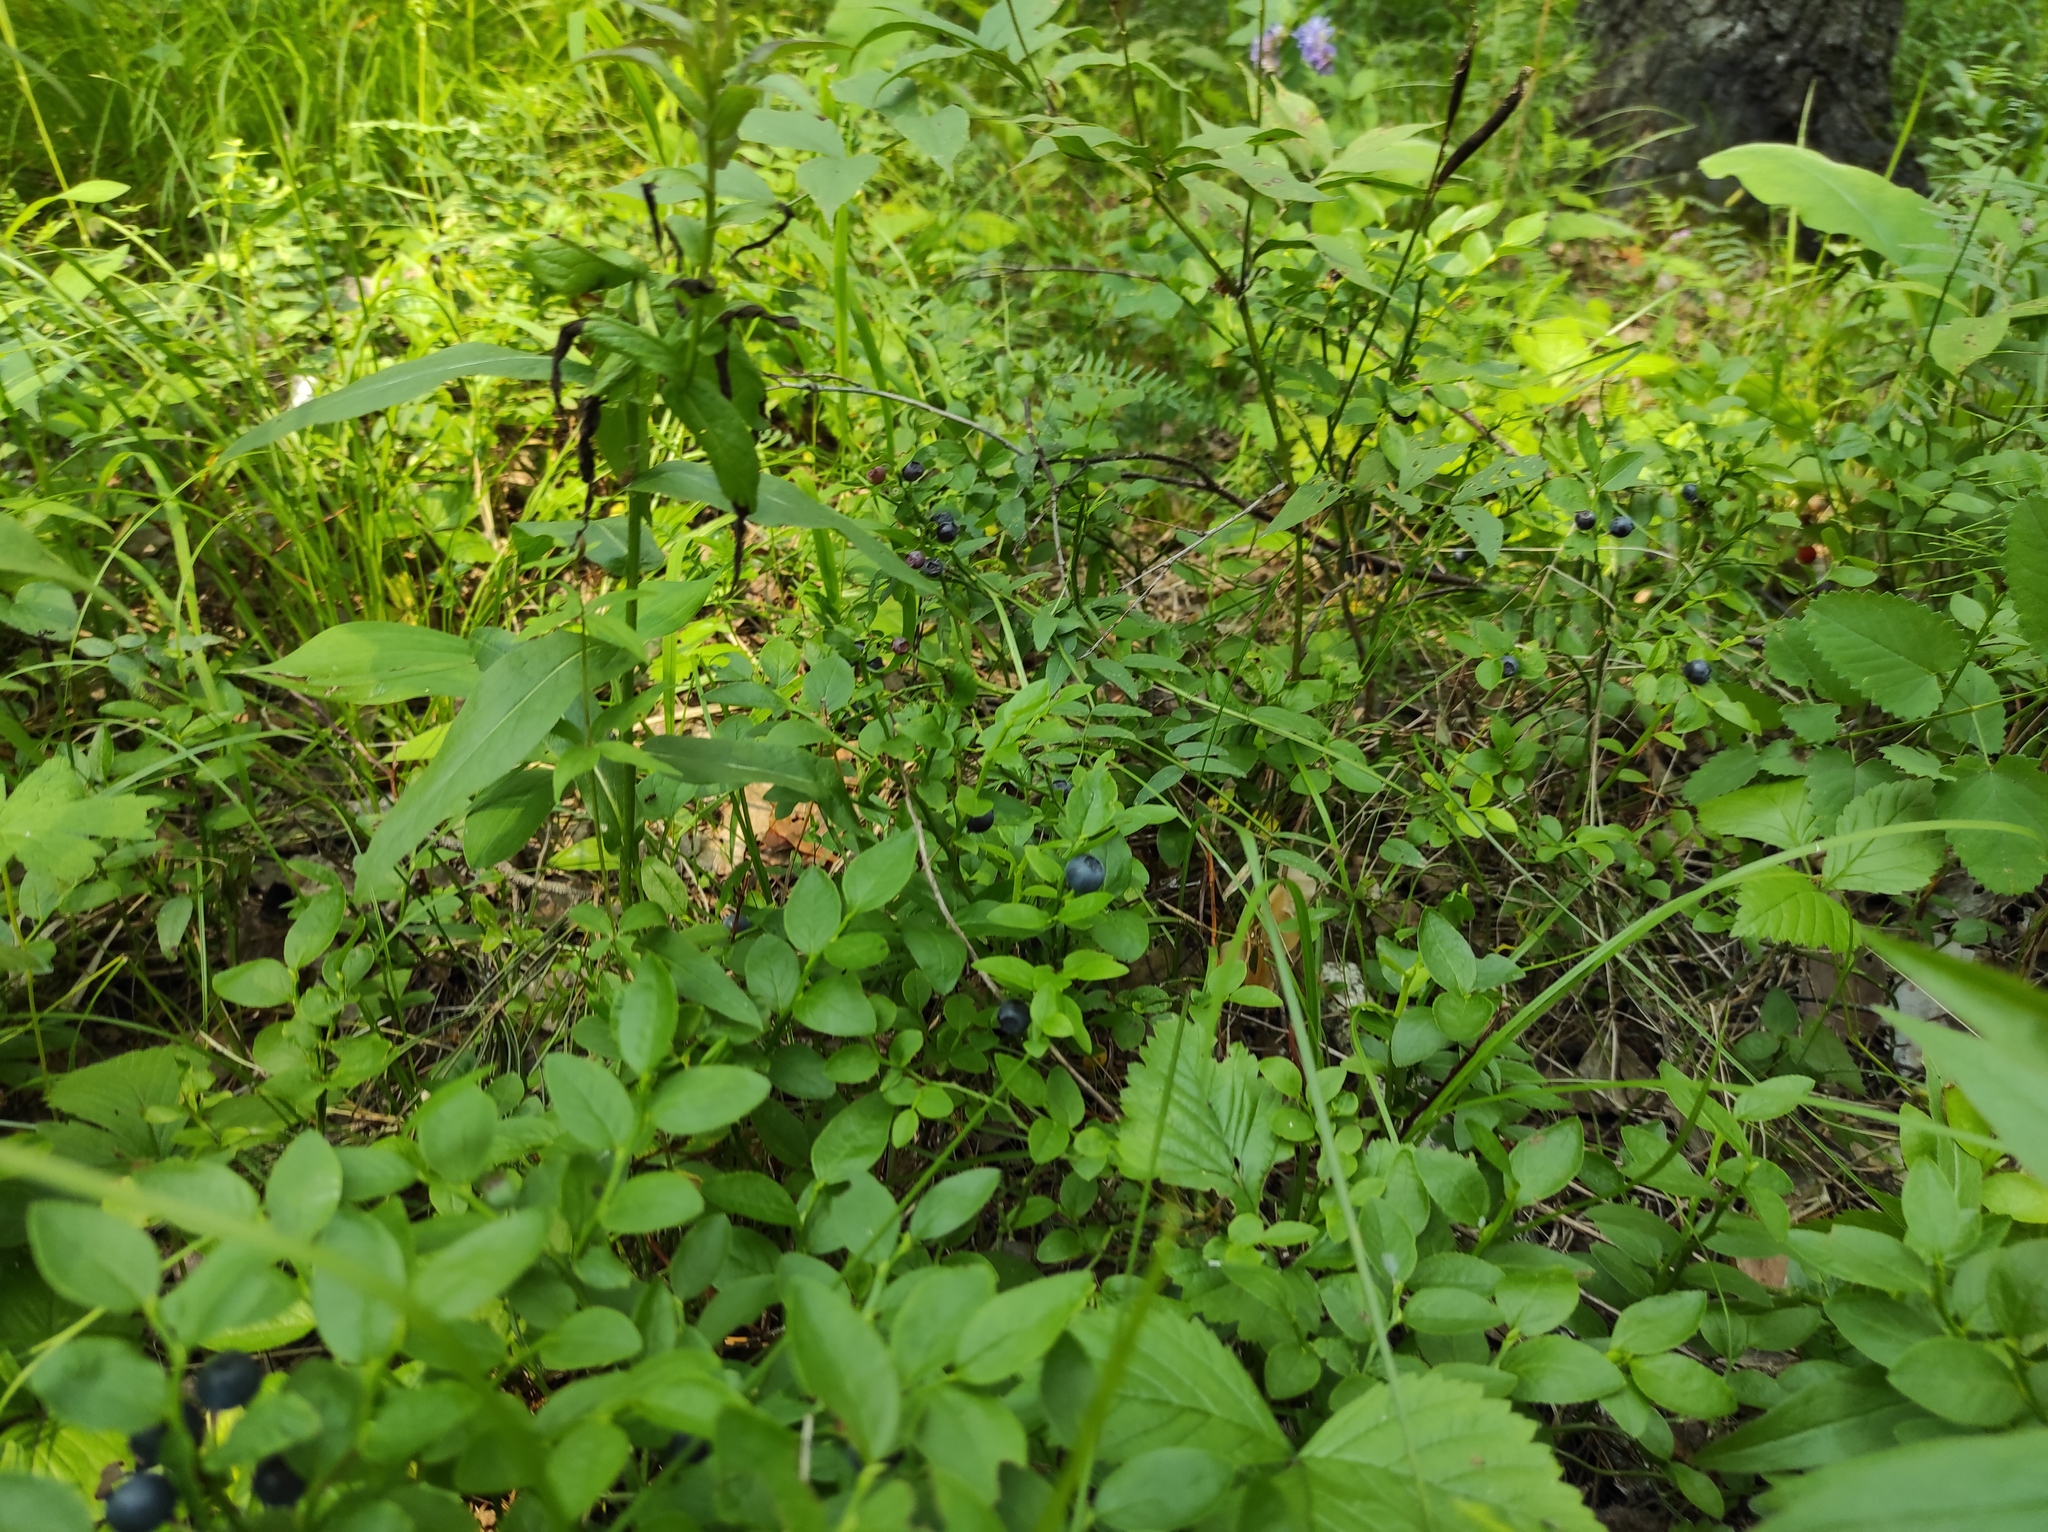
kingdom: Plantae
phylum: Tracheophyta
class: Magnoliopsida
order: Ericales
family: Ericaceae
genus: Vaccinium
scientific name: Vaccinium myrtillus
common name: Bilberry
